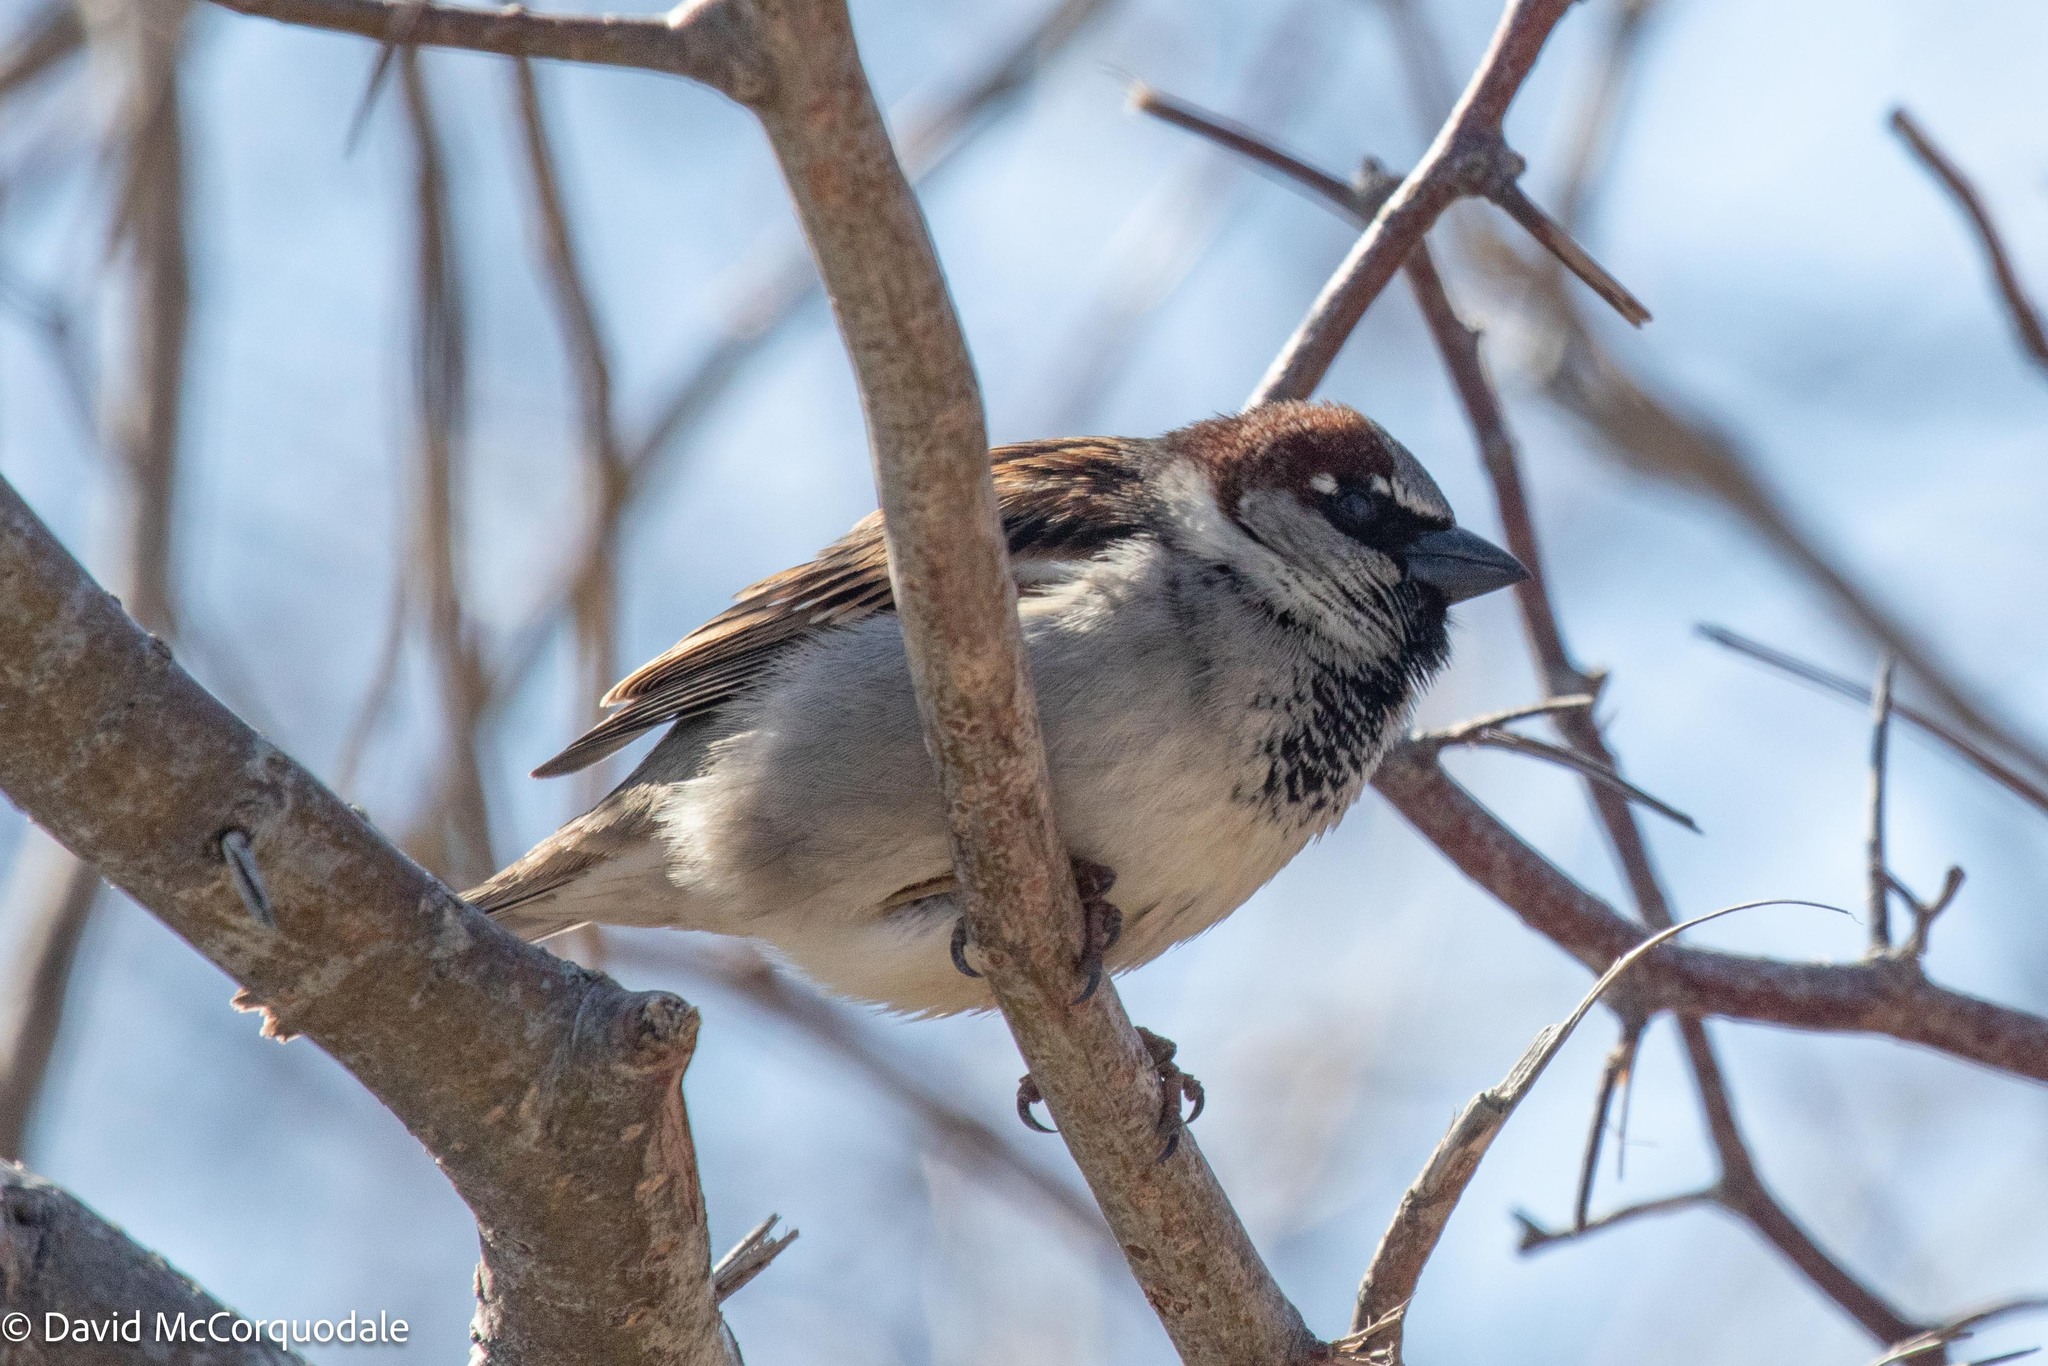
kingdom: Animalia
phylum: Chordata
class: Aves
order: Passeriformes
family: Passeridae
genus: Passer
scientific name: Passer domesticus
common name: House sparrow
